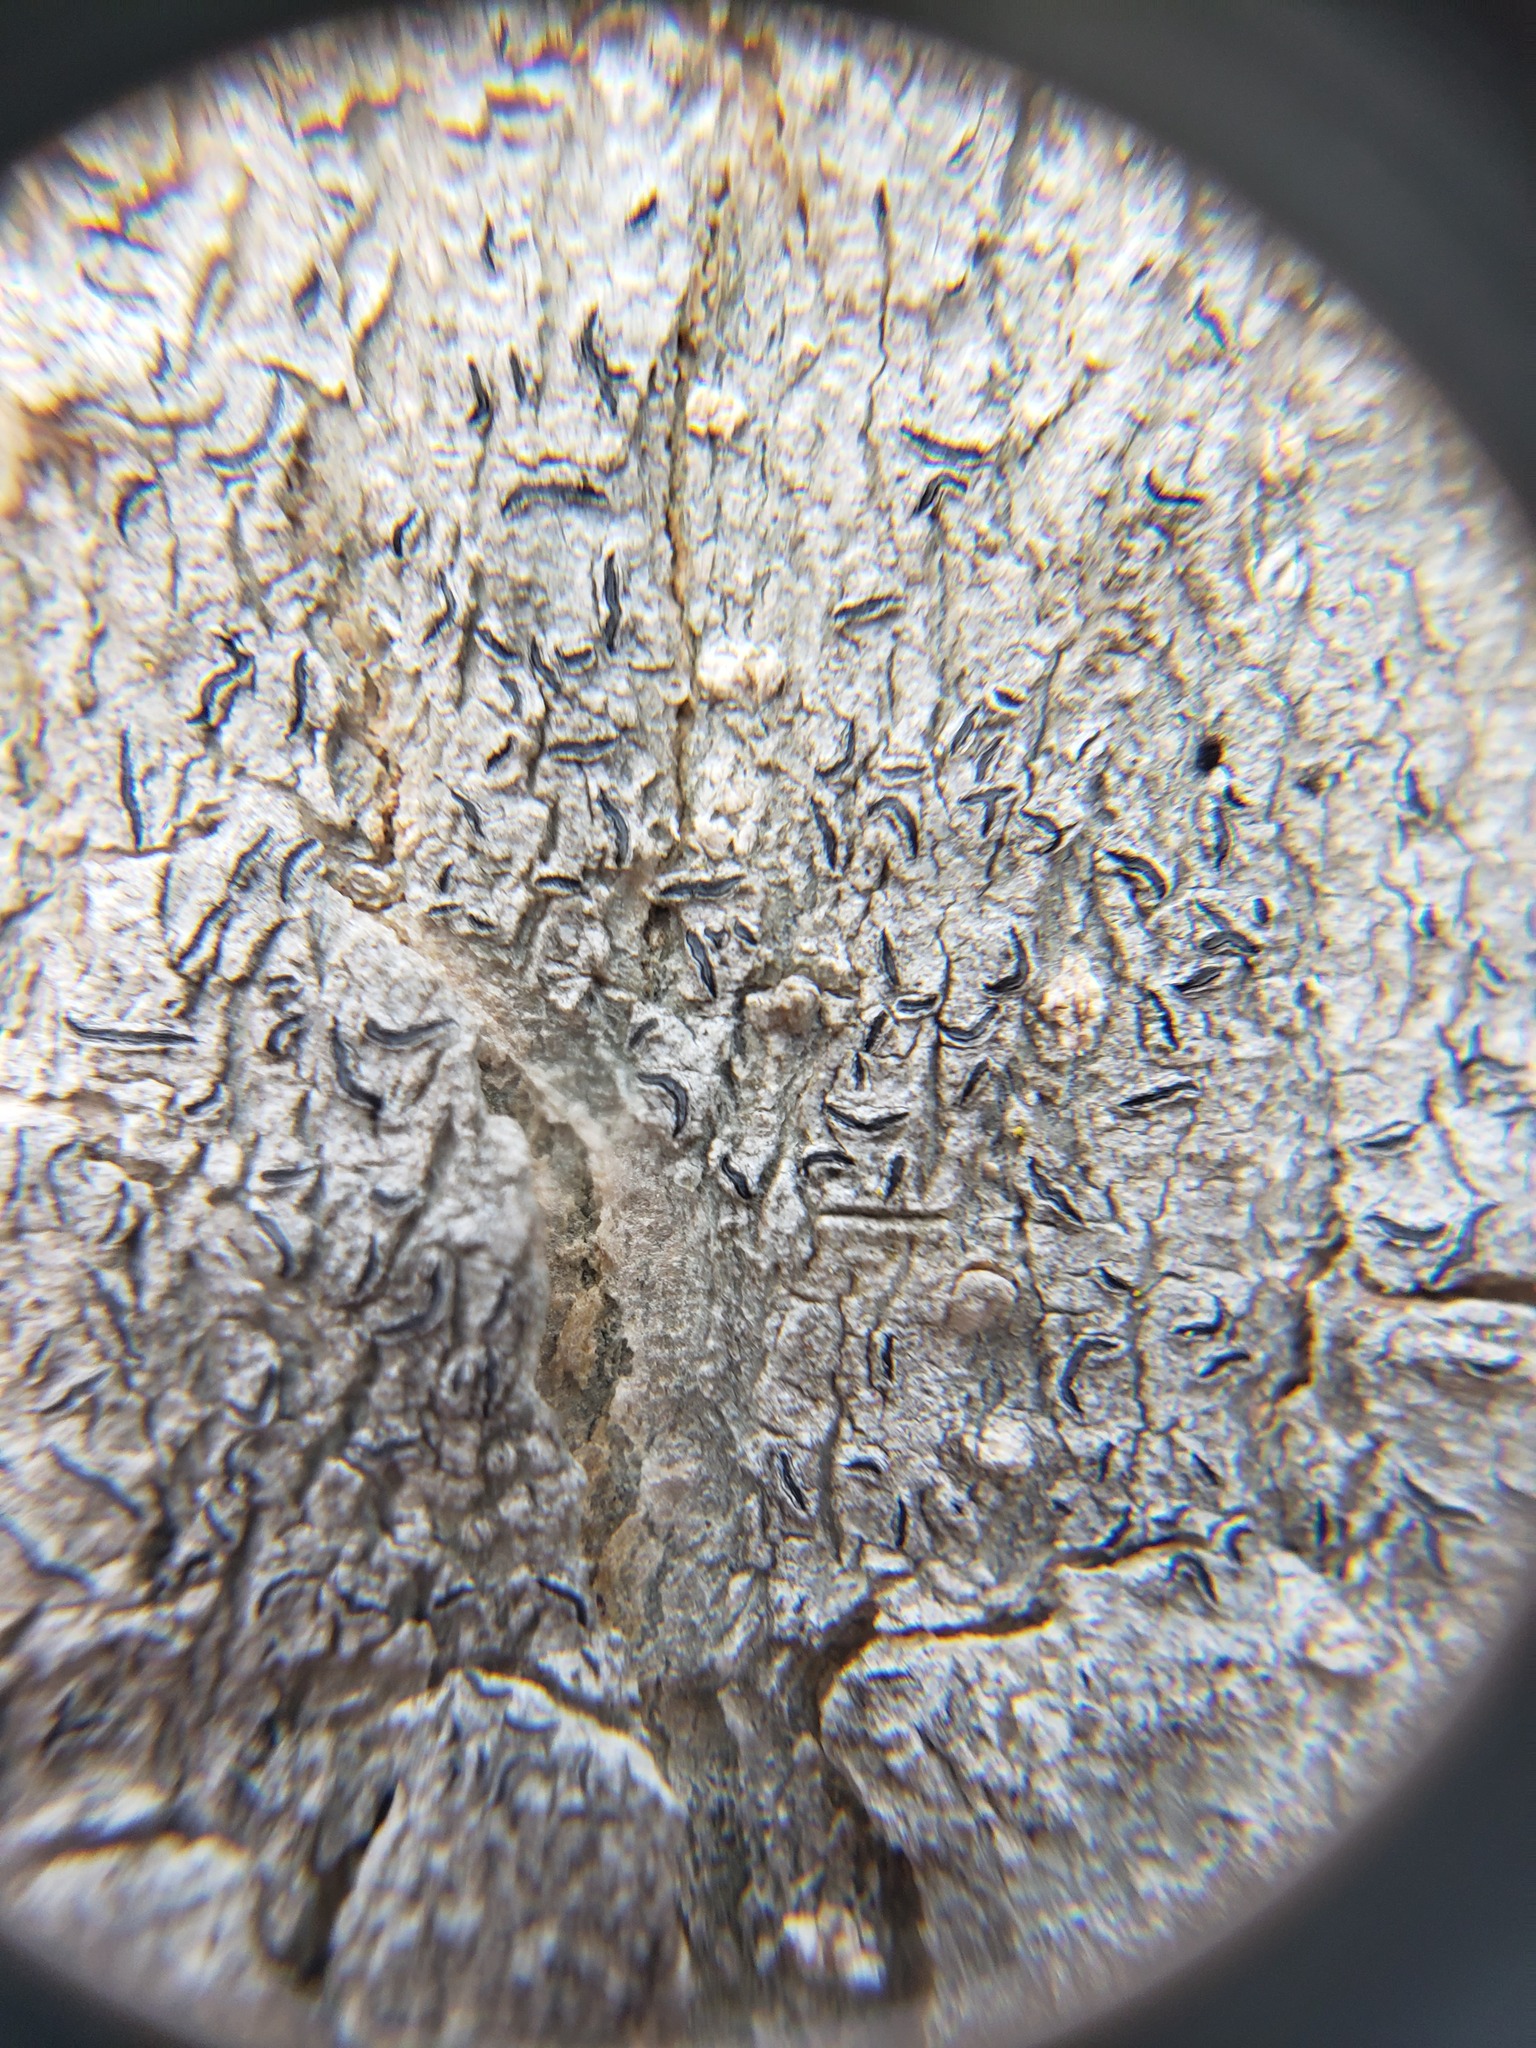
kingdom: Fungi
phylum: Ascomycota
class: Lecanoromycetes
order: Ostropales
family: Graphidaceae
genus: Graphis
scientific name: Graphis scripta
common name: Script lichen
